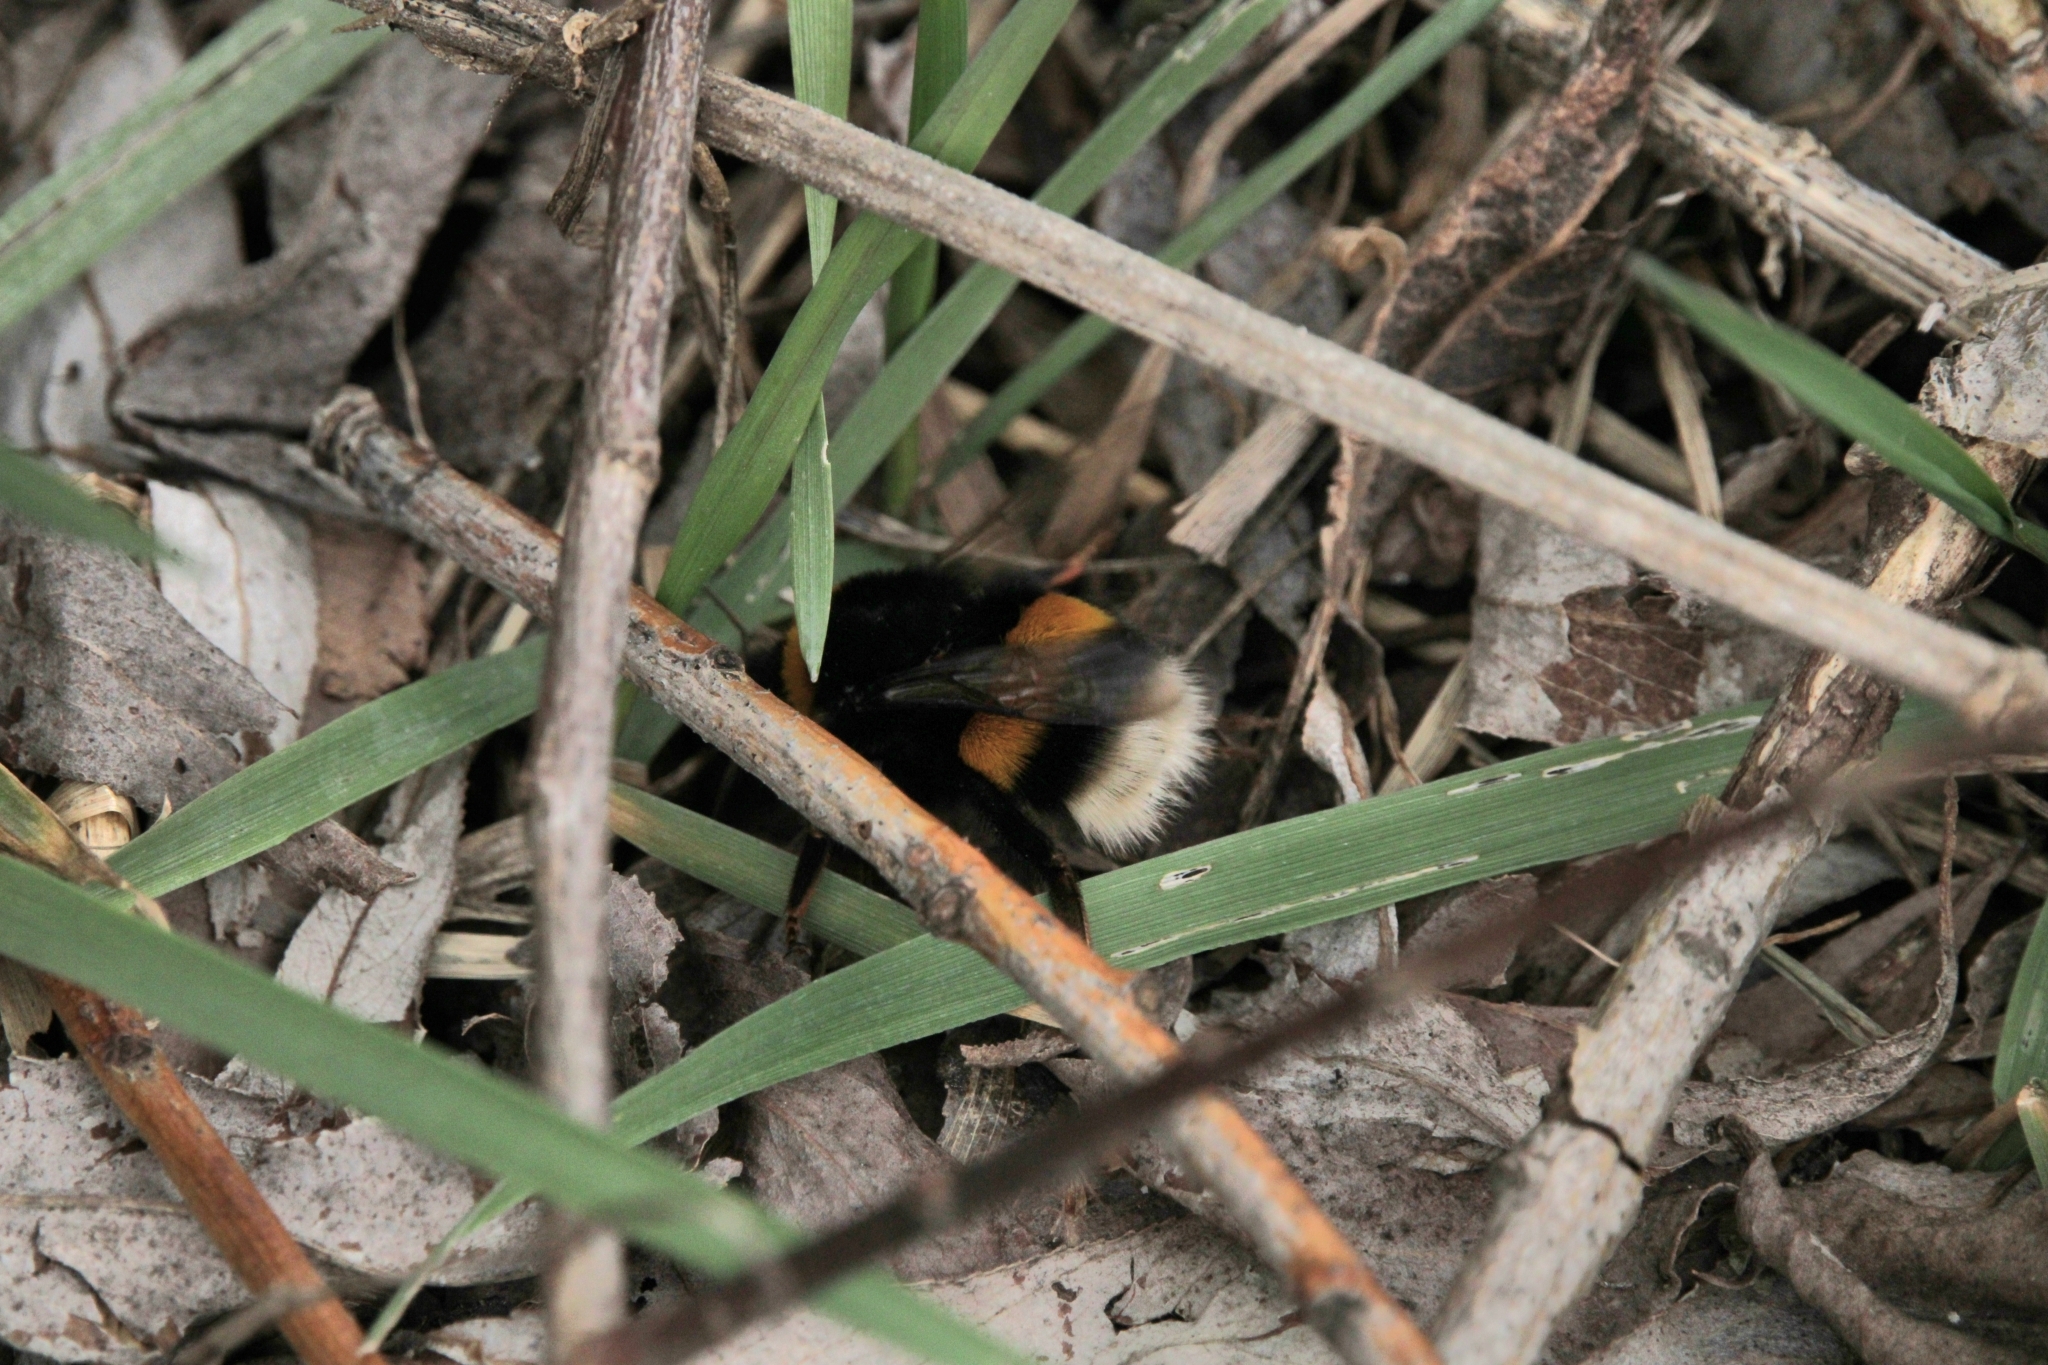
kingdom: Animalia
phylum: Arthropoda
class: Insecta
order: Hymenoptera
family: Apidae
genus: Bombus
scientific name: Bombus terrestris
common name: Buff-tailed bumblebee
